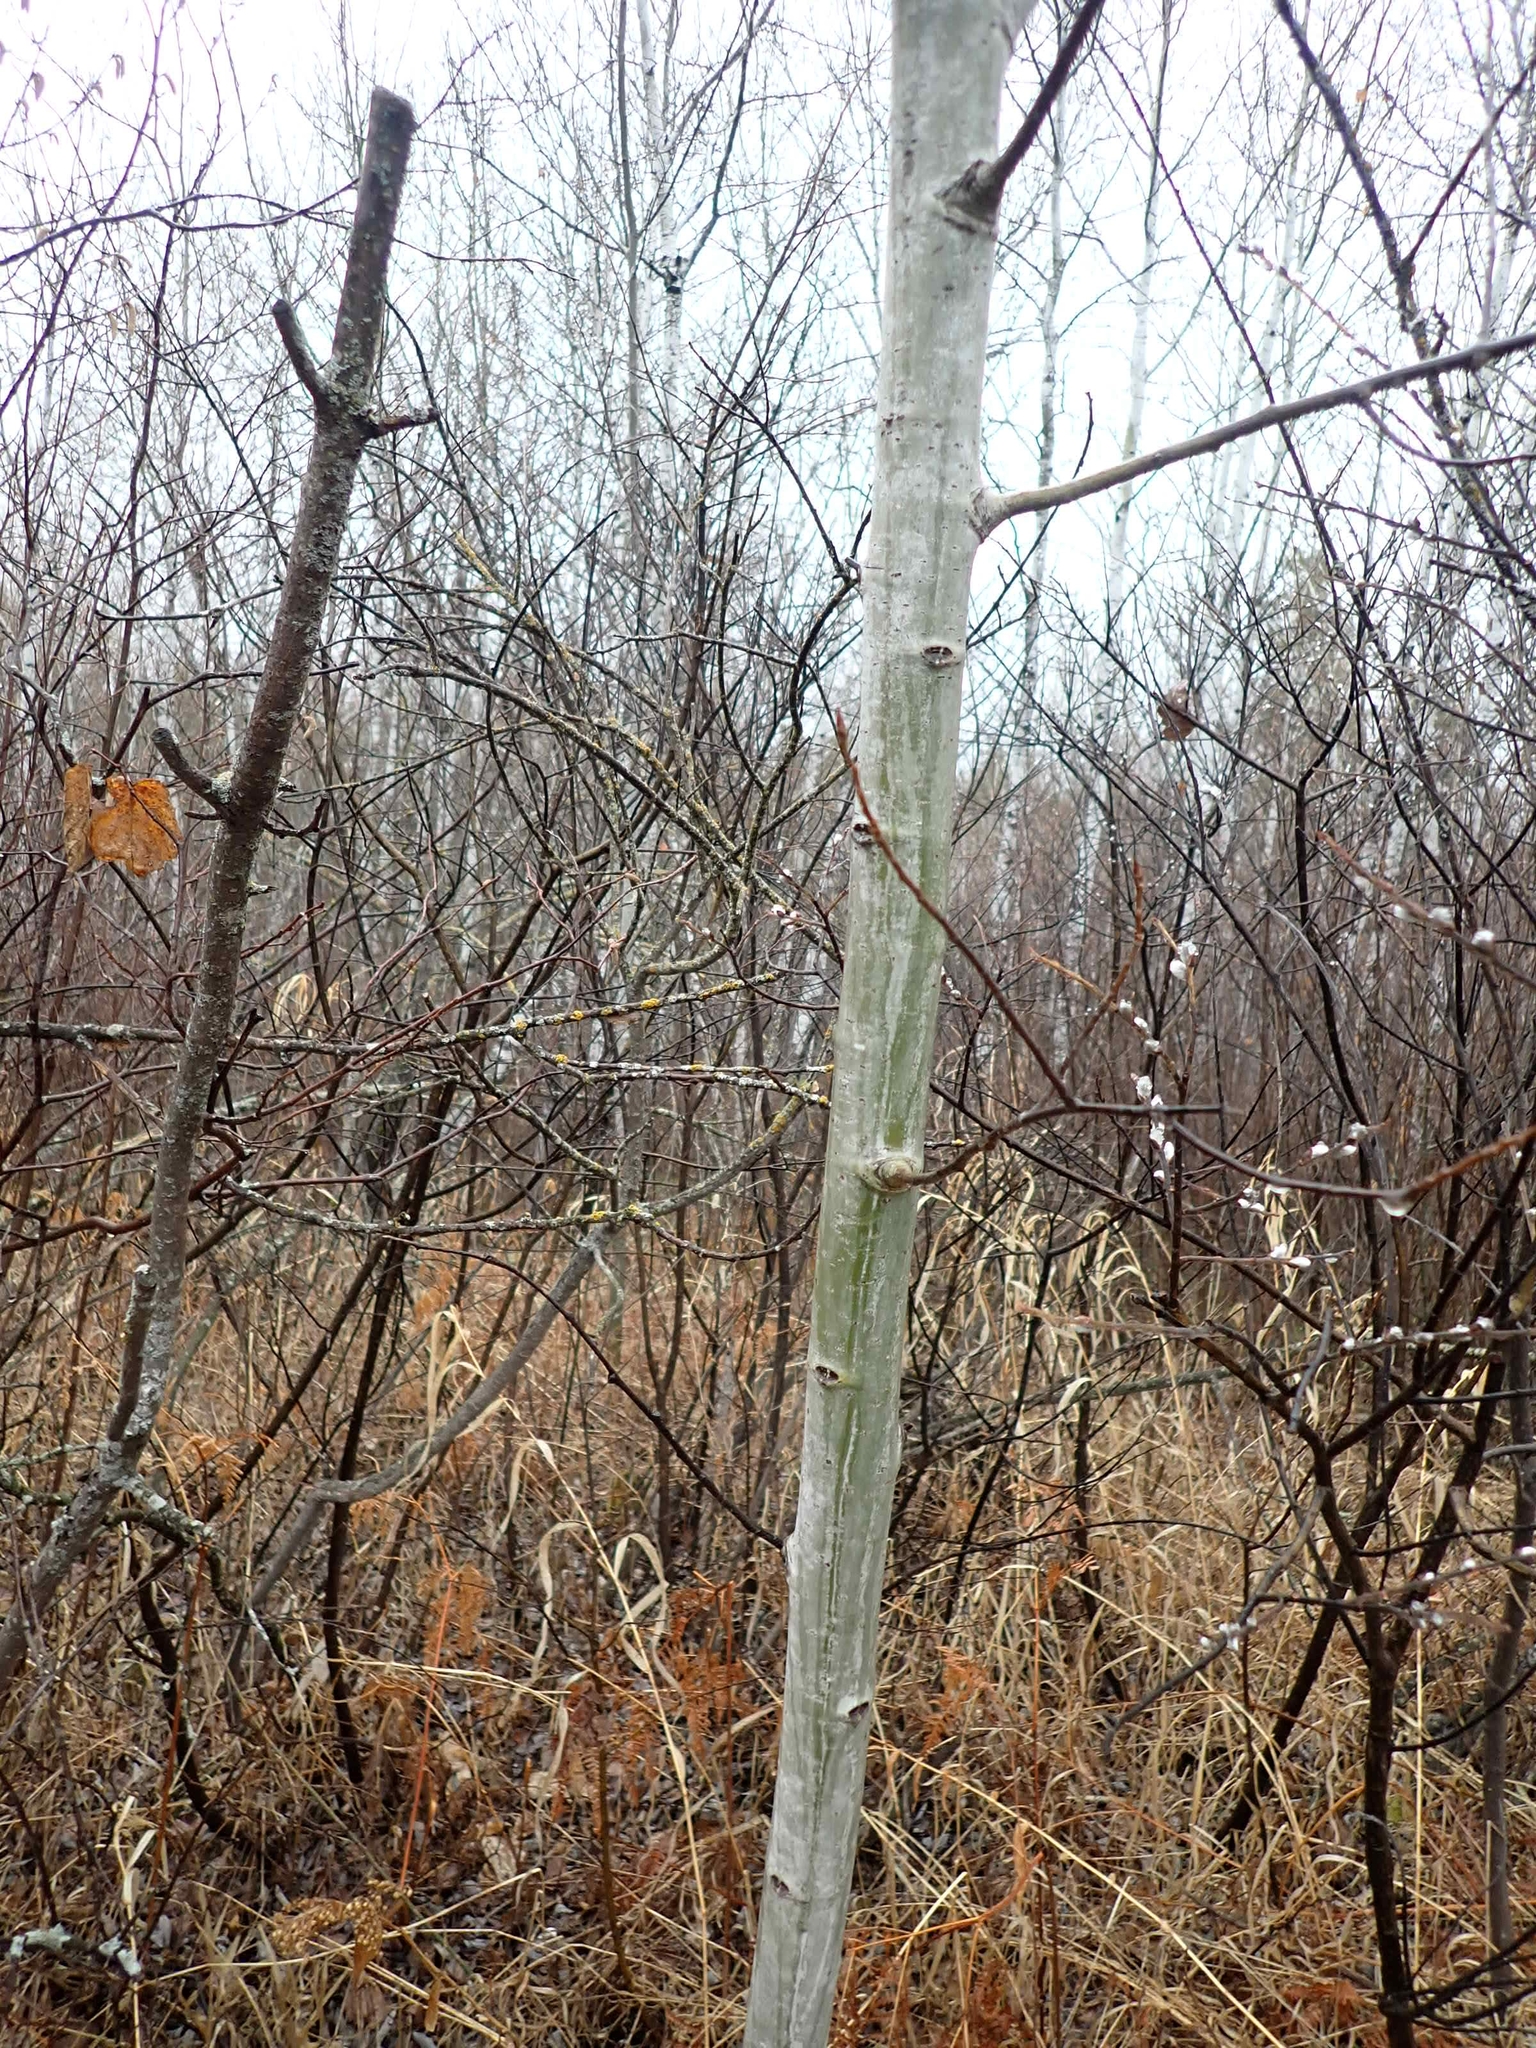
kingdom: Plantae
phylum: Tracheophyta
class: Magnoliopsida
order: Malpighiales
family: Salicaceae
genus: Populus
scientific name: Populus tremuloides
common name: Quaking aspen
